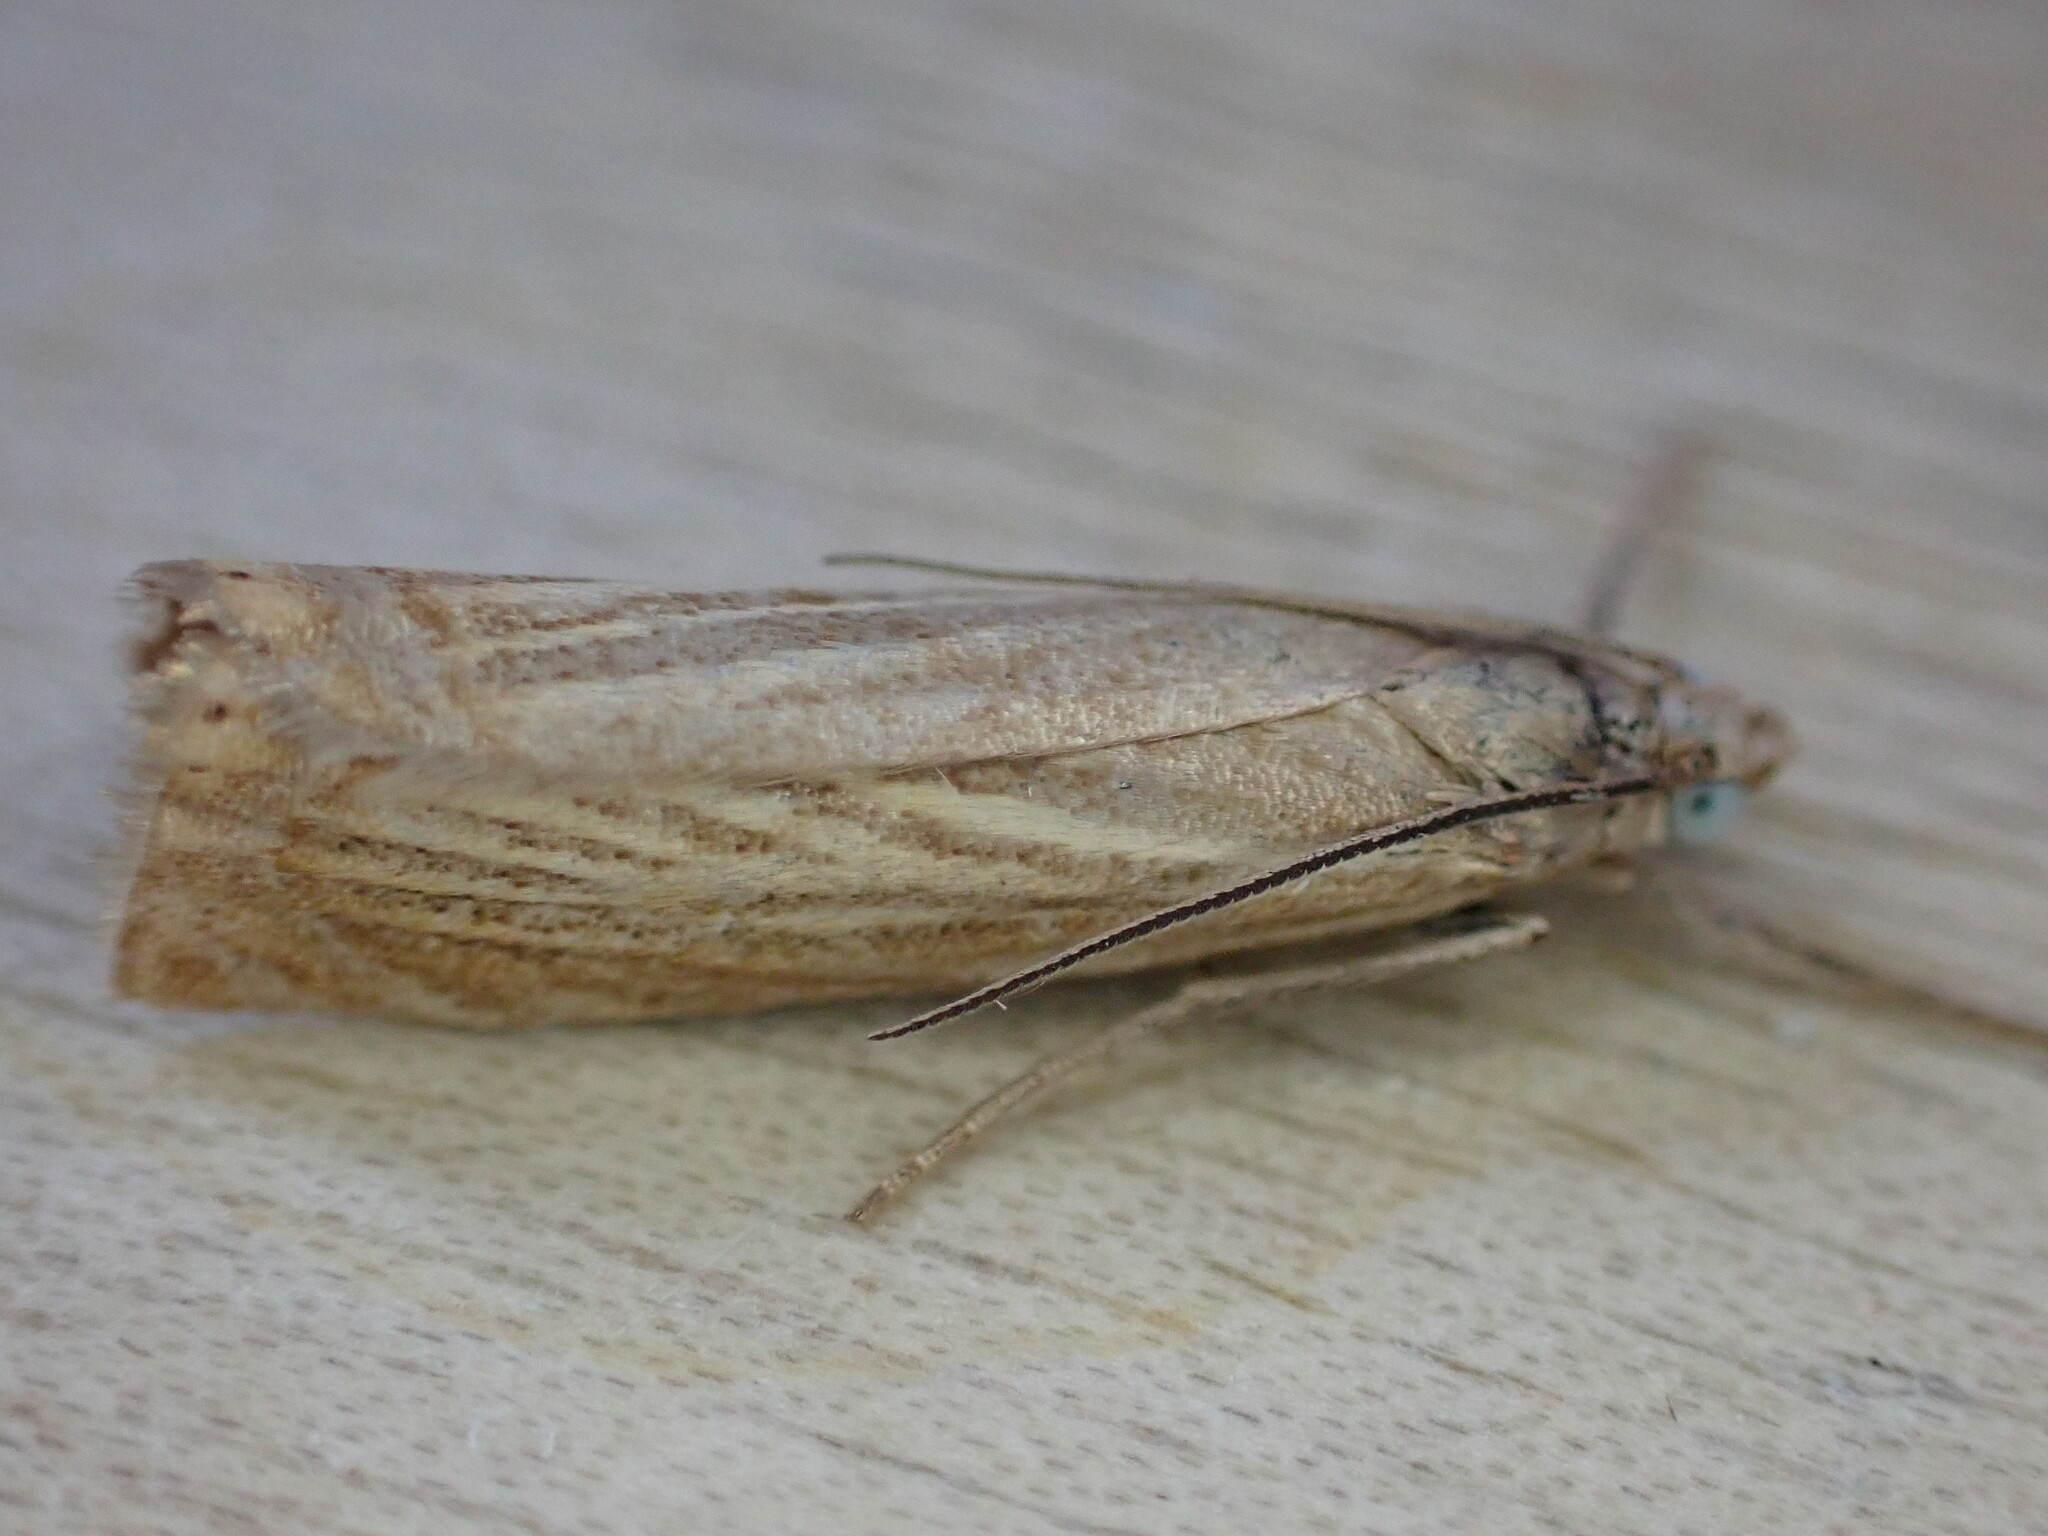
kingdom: Animalia
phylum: Arthropoda
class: Insecta
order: Lepidoptera
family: Crambidae
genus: Chrysoteuchia
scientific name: Chrysoteuchia culmella
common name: Garden grass-veneer
